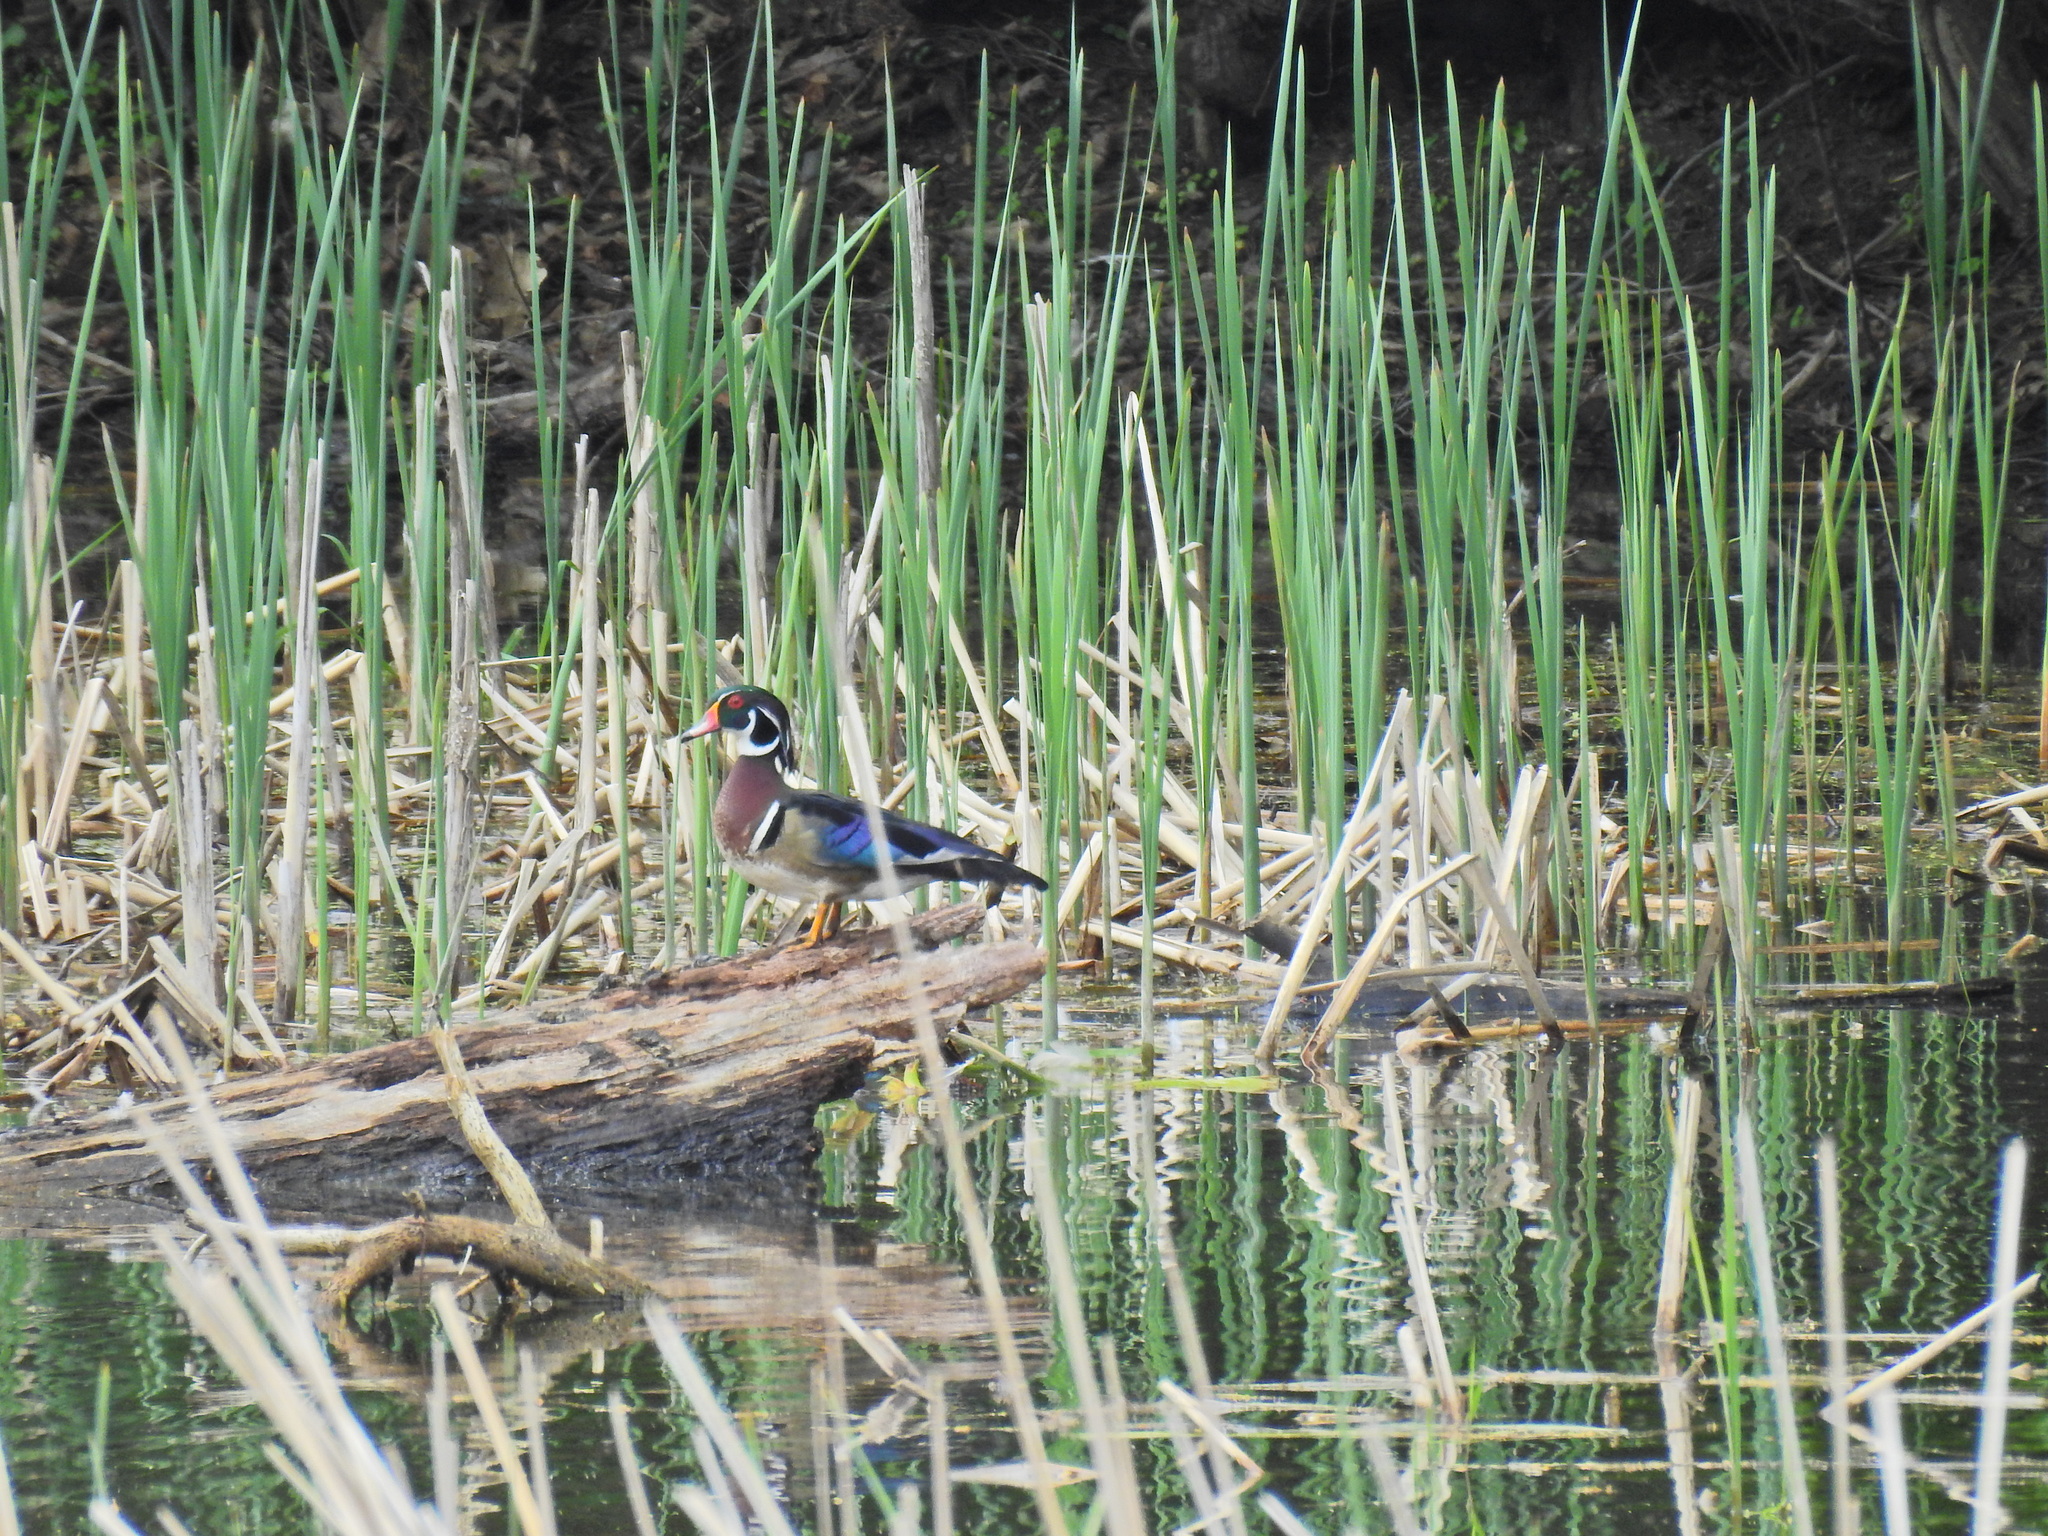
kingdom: Animalia
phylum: Chordata
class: Aves
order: Anseriformes
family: Anatidae
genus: Aix
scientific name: Aix sponsa
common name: Wood duck
